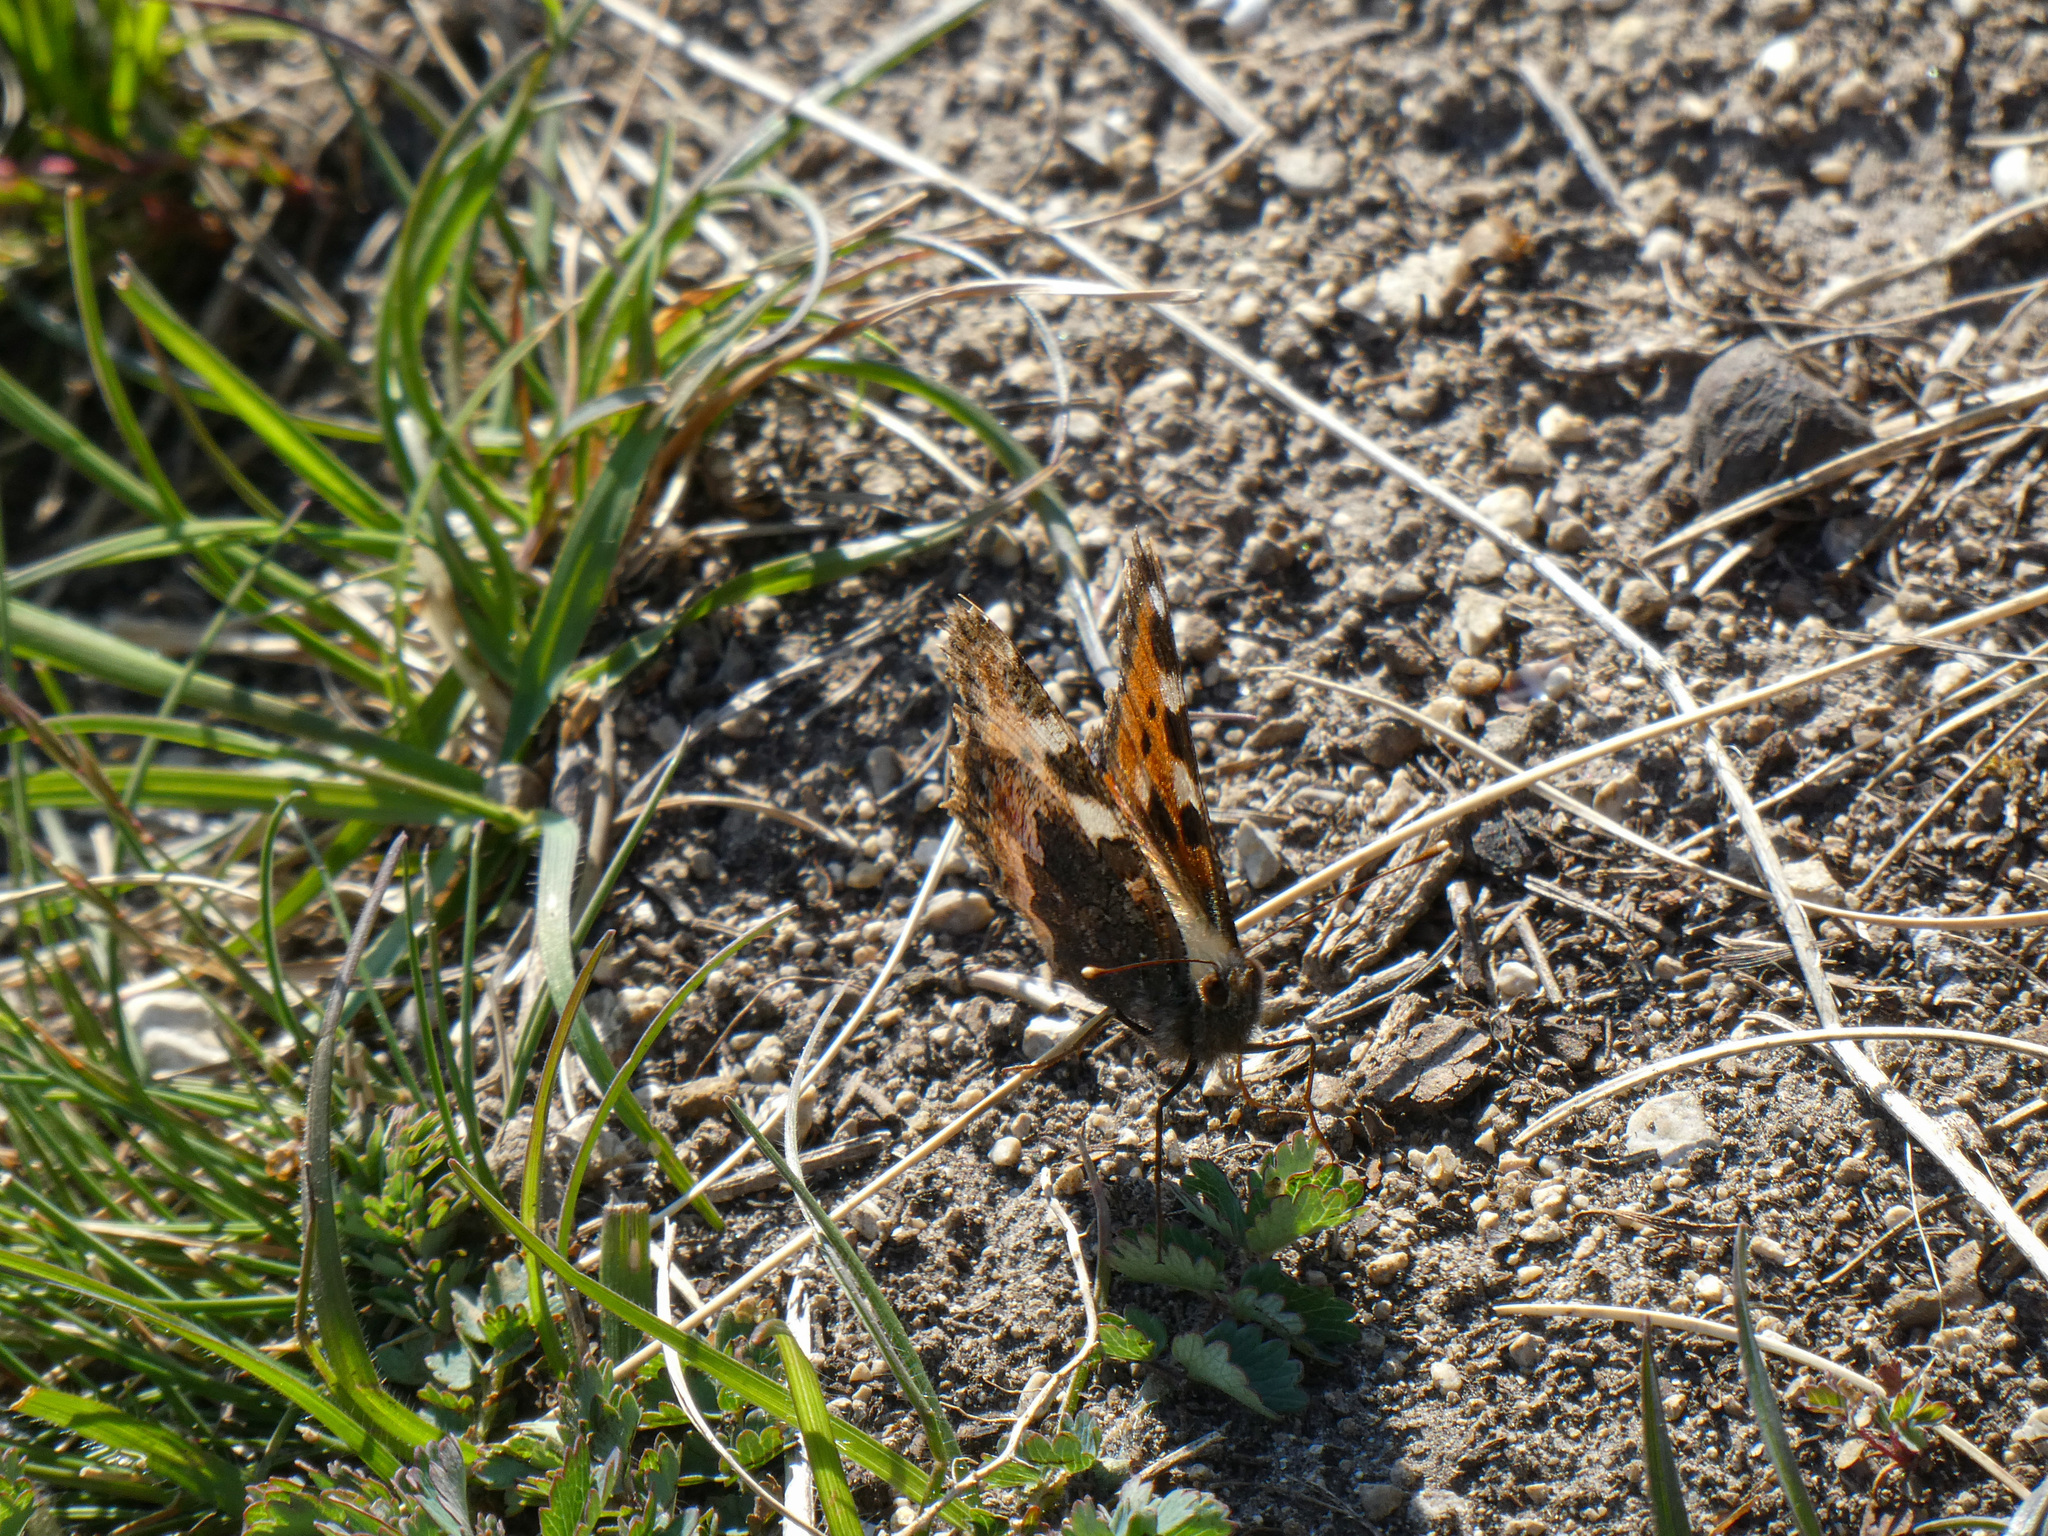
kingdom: Animalia
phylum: Arthropoda
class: Insecta
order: Lepidoptera
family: Nymphalidae
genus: Aglais
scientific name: Aglais urticae
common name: Small tortoiseshell
